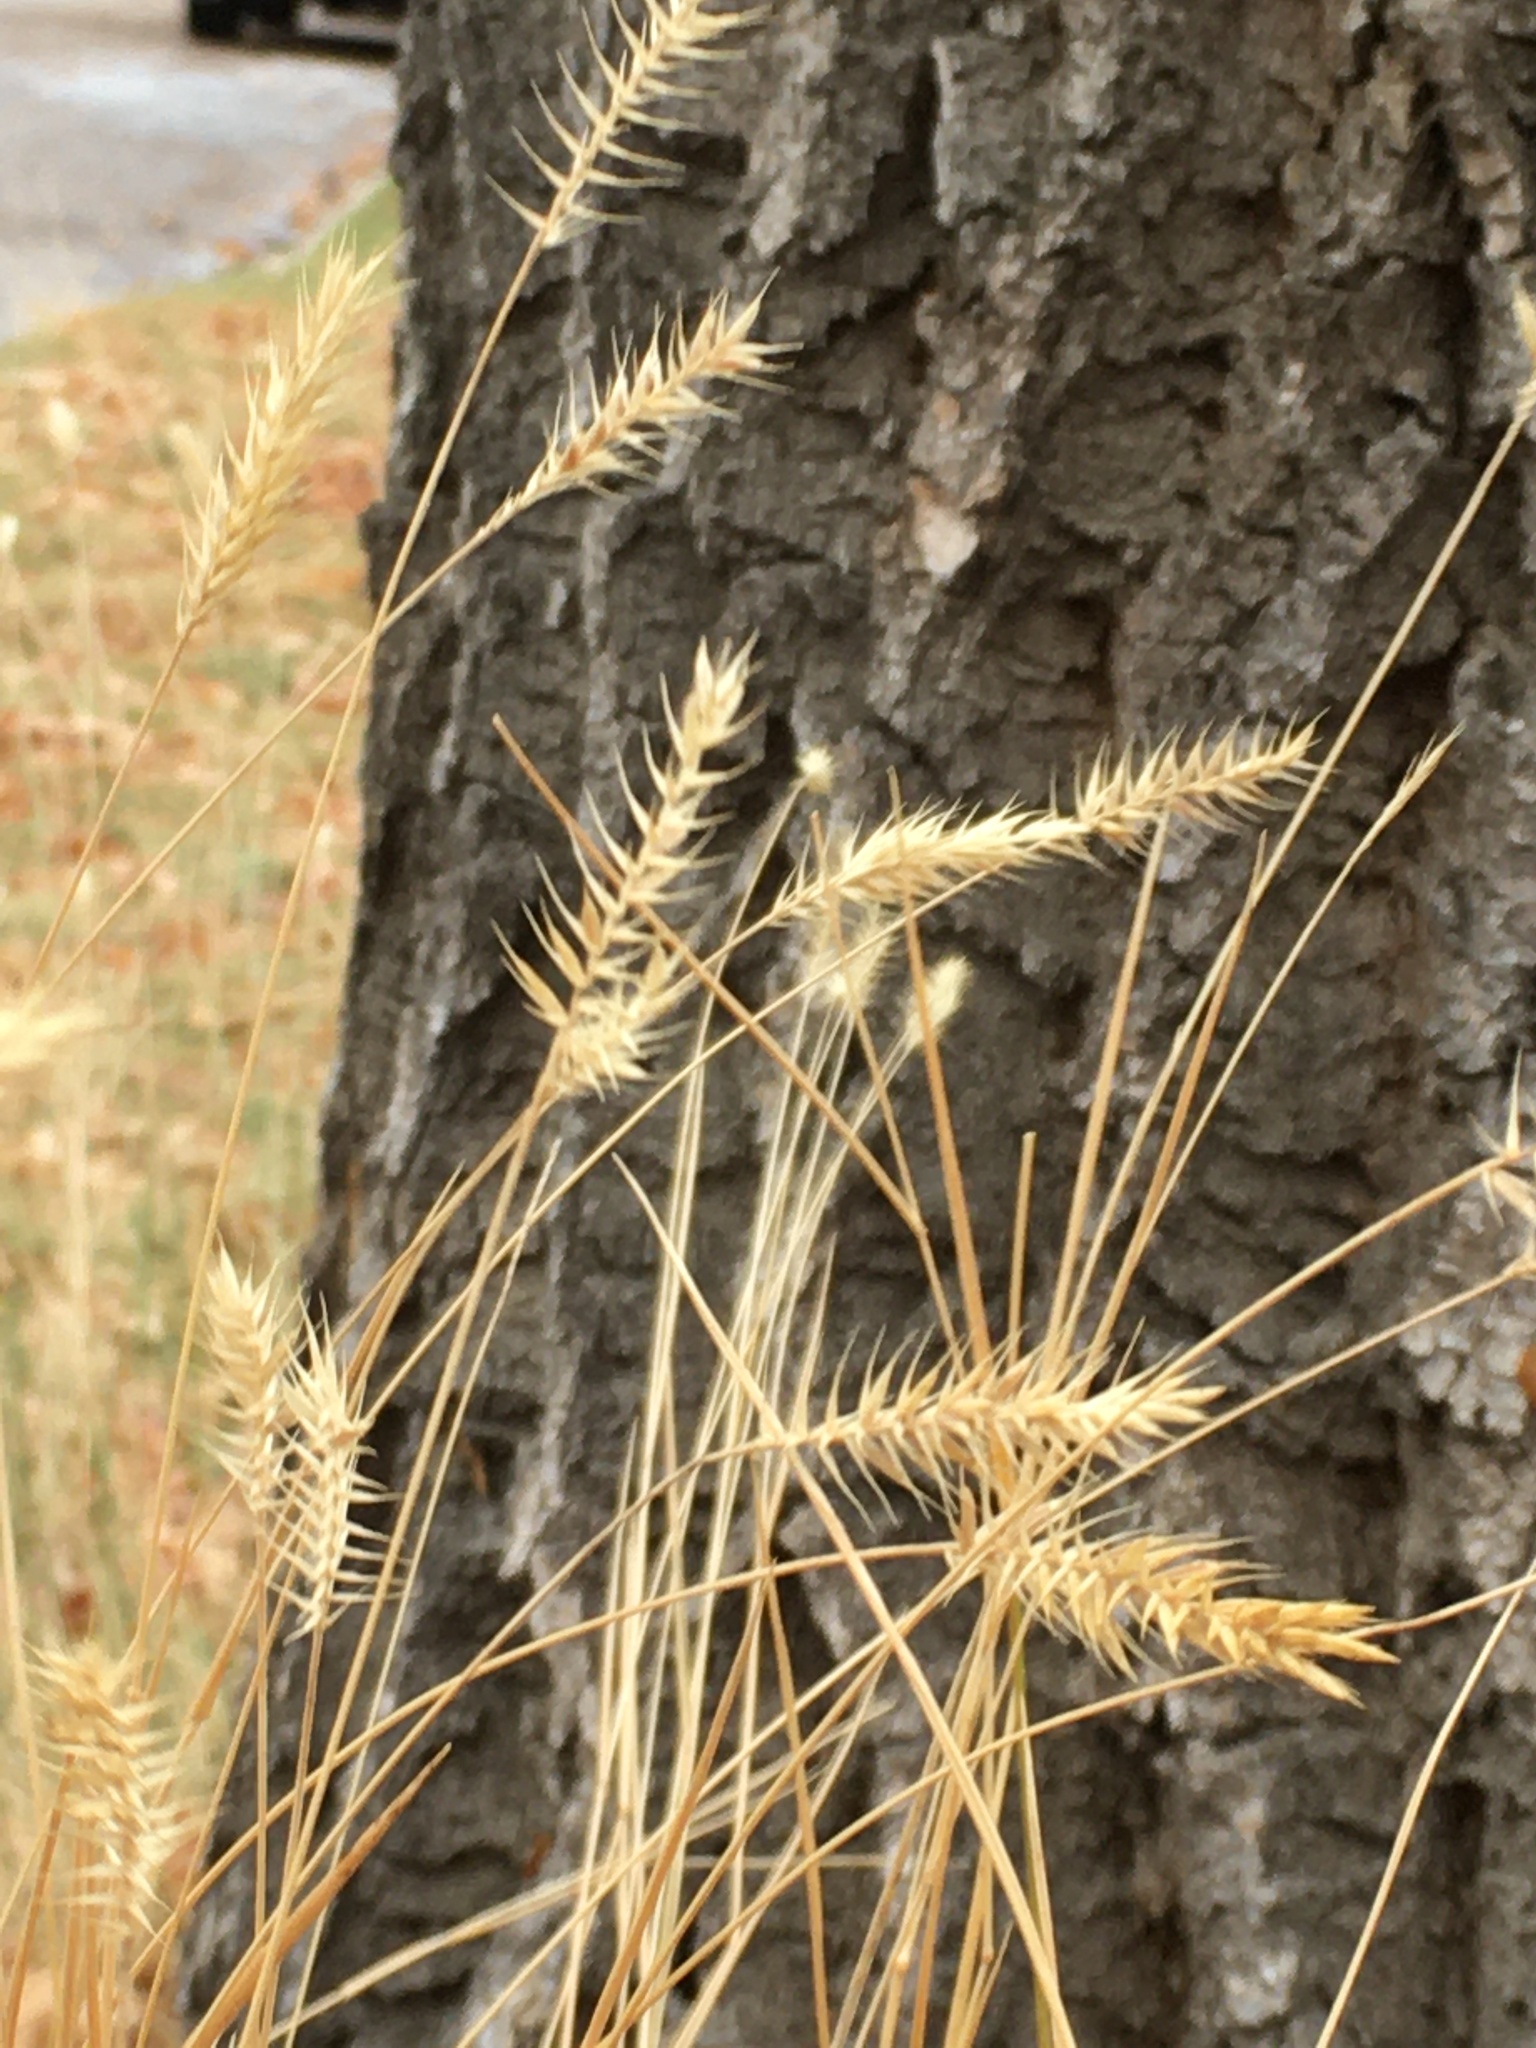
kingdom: Plantae
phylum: Tracheophyta
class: Liliopsida
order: Poales
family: Poaceae
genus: Agropyron
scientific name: Agropyron cristatum
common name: Crested wheatgrass
